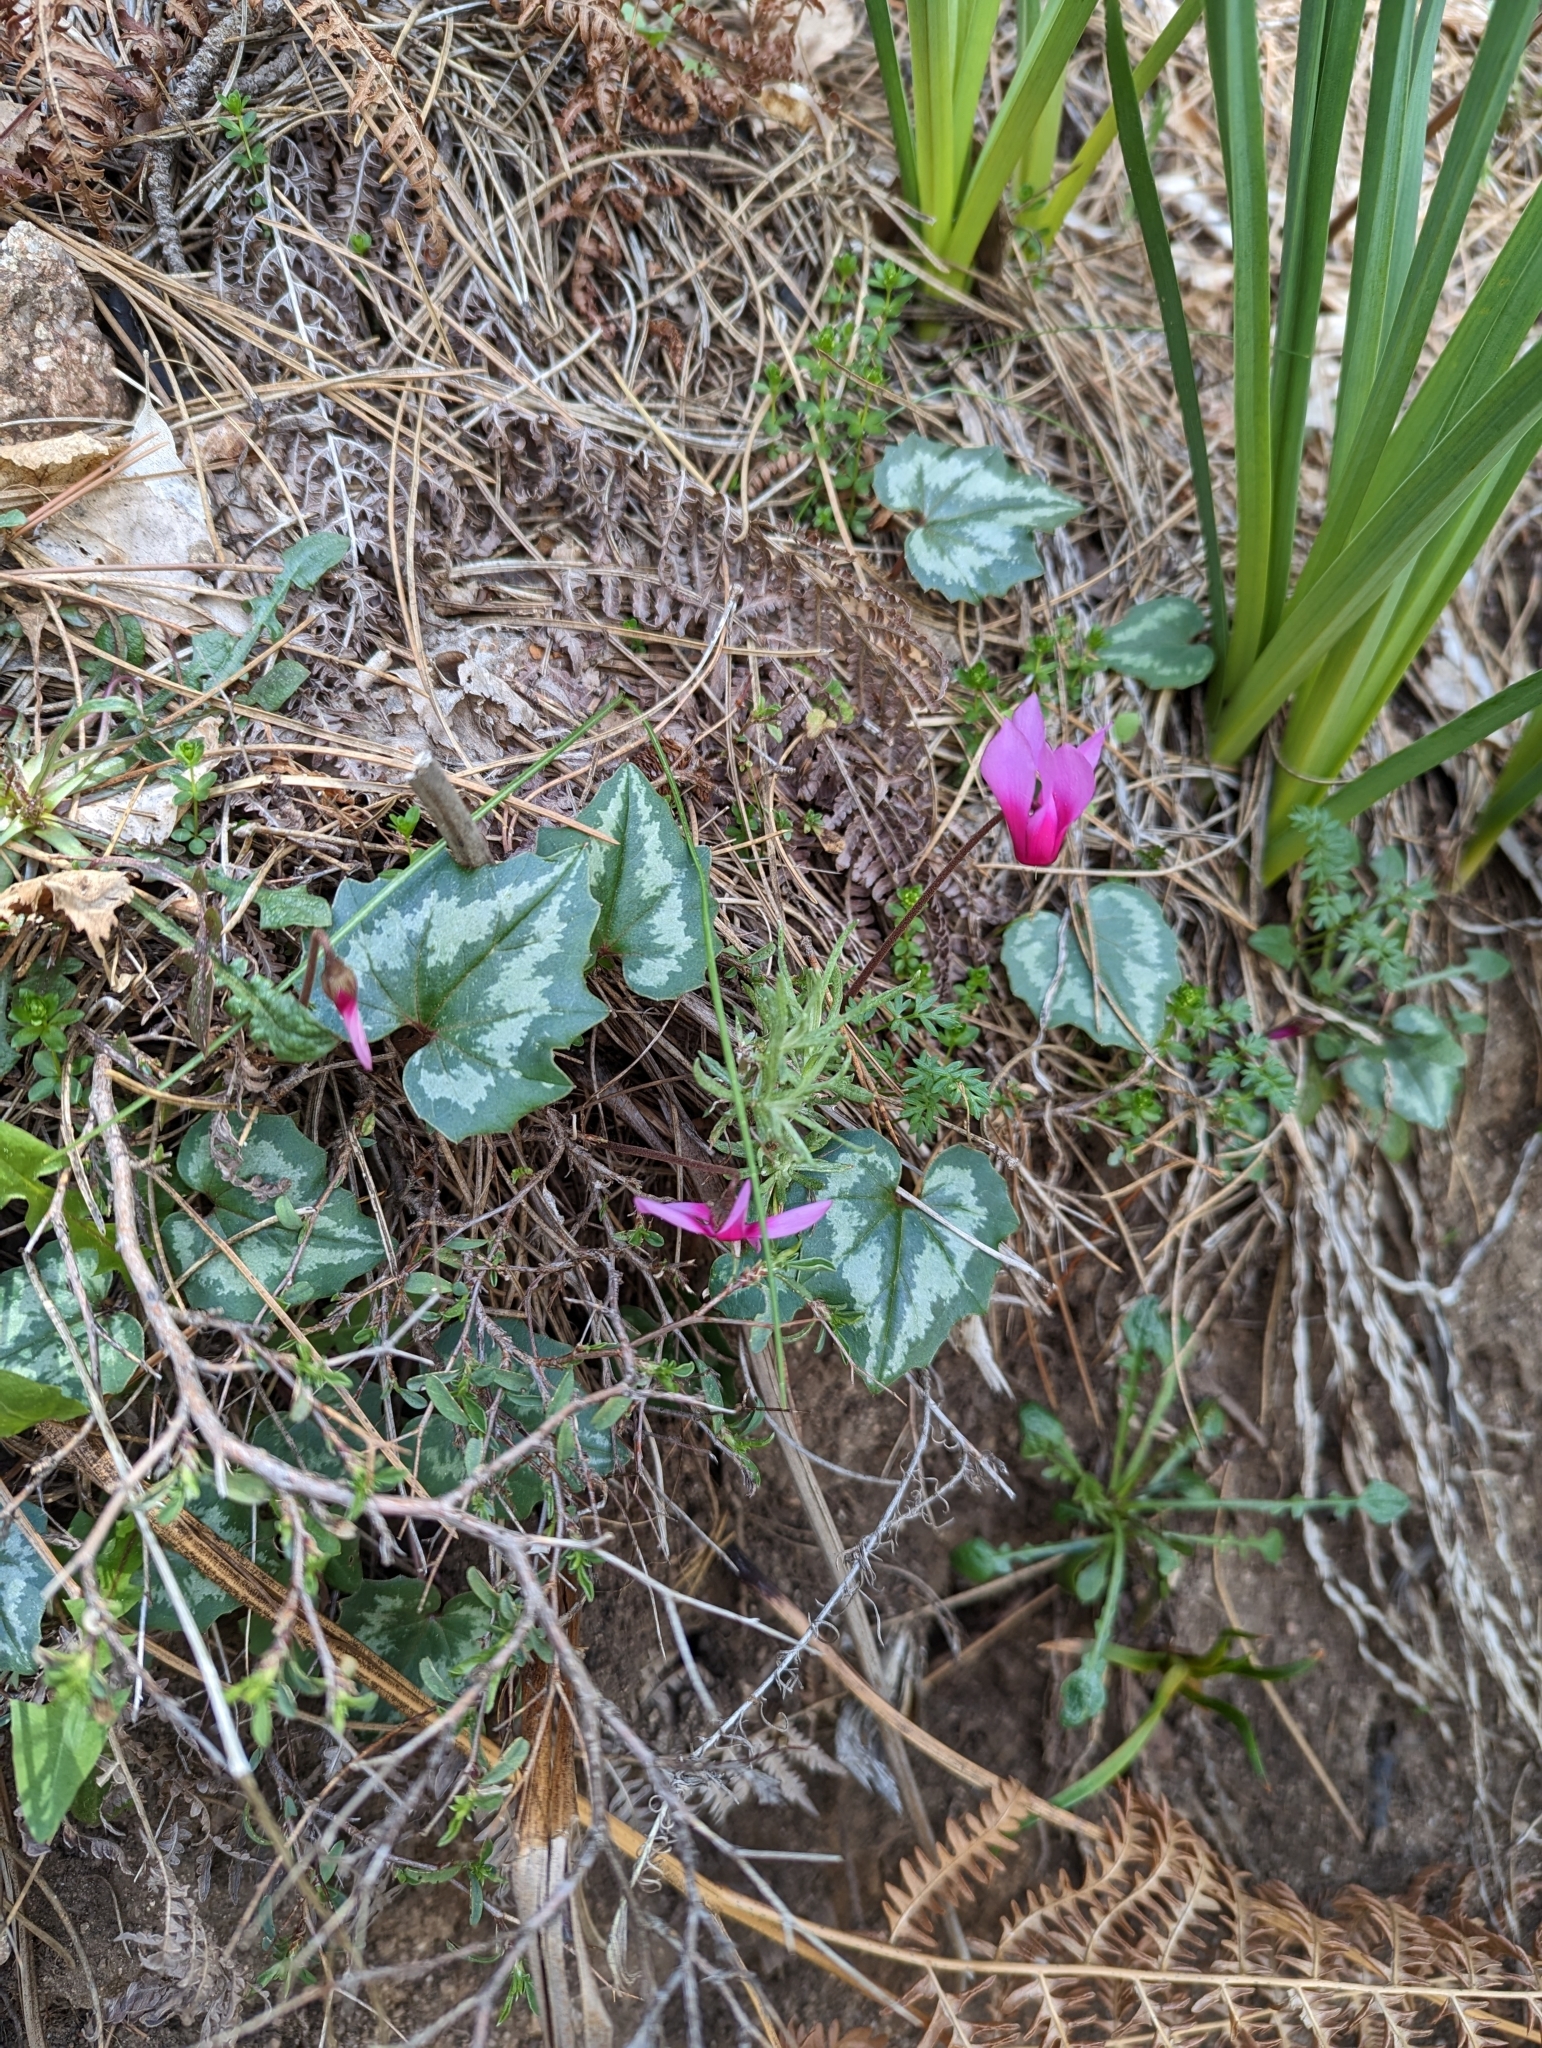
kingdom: Plantae
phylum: Tracheophyta
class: Magnoliopsida
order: Ericales
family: Primulaceae
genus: Cyclamen
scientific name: Cyclamen repandum
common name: Spring sowbread
